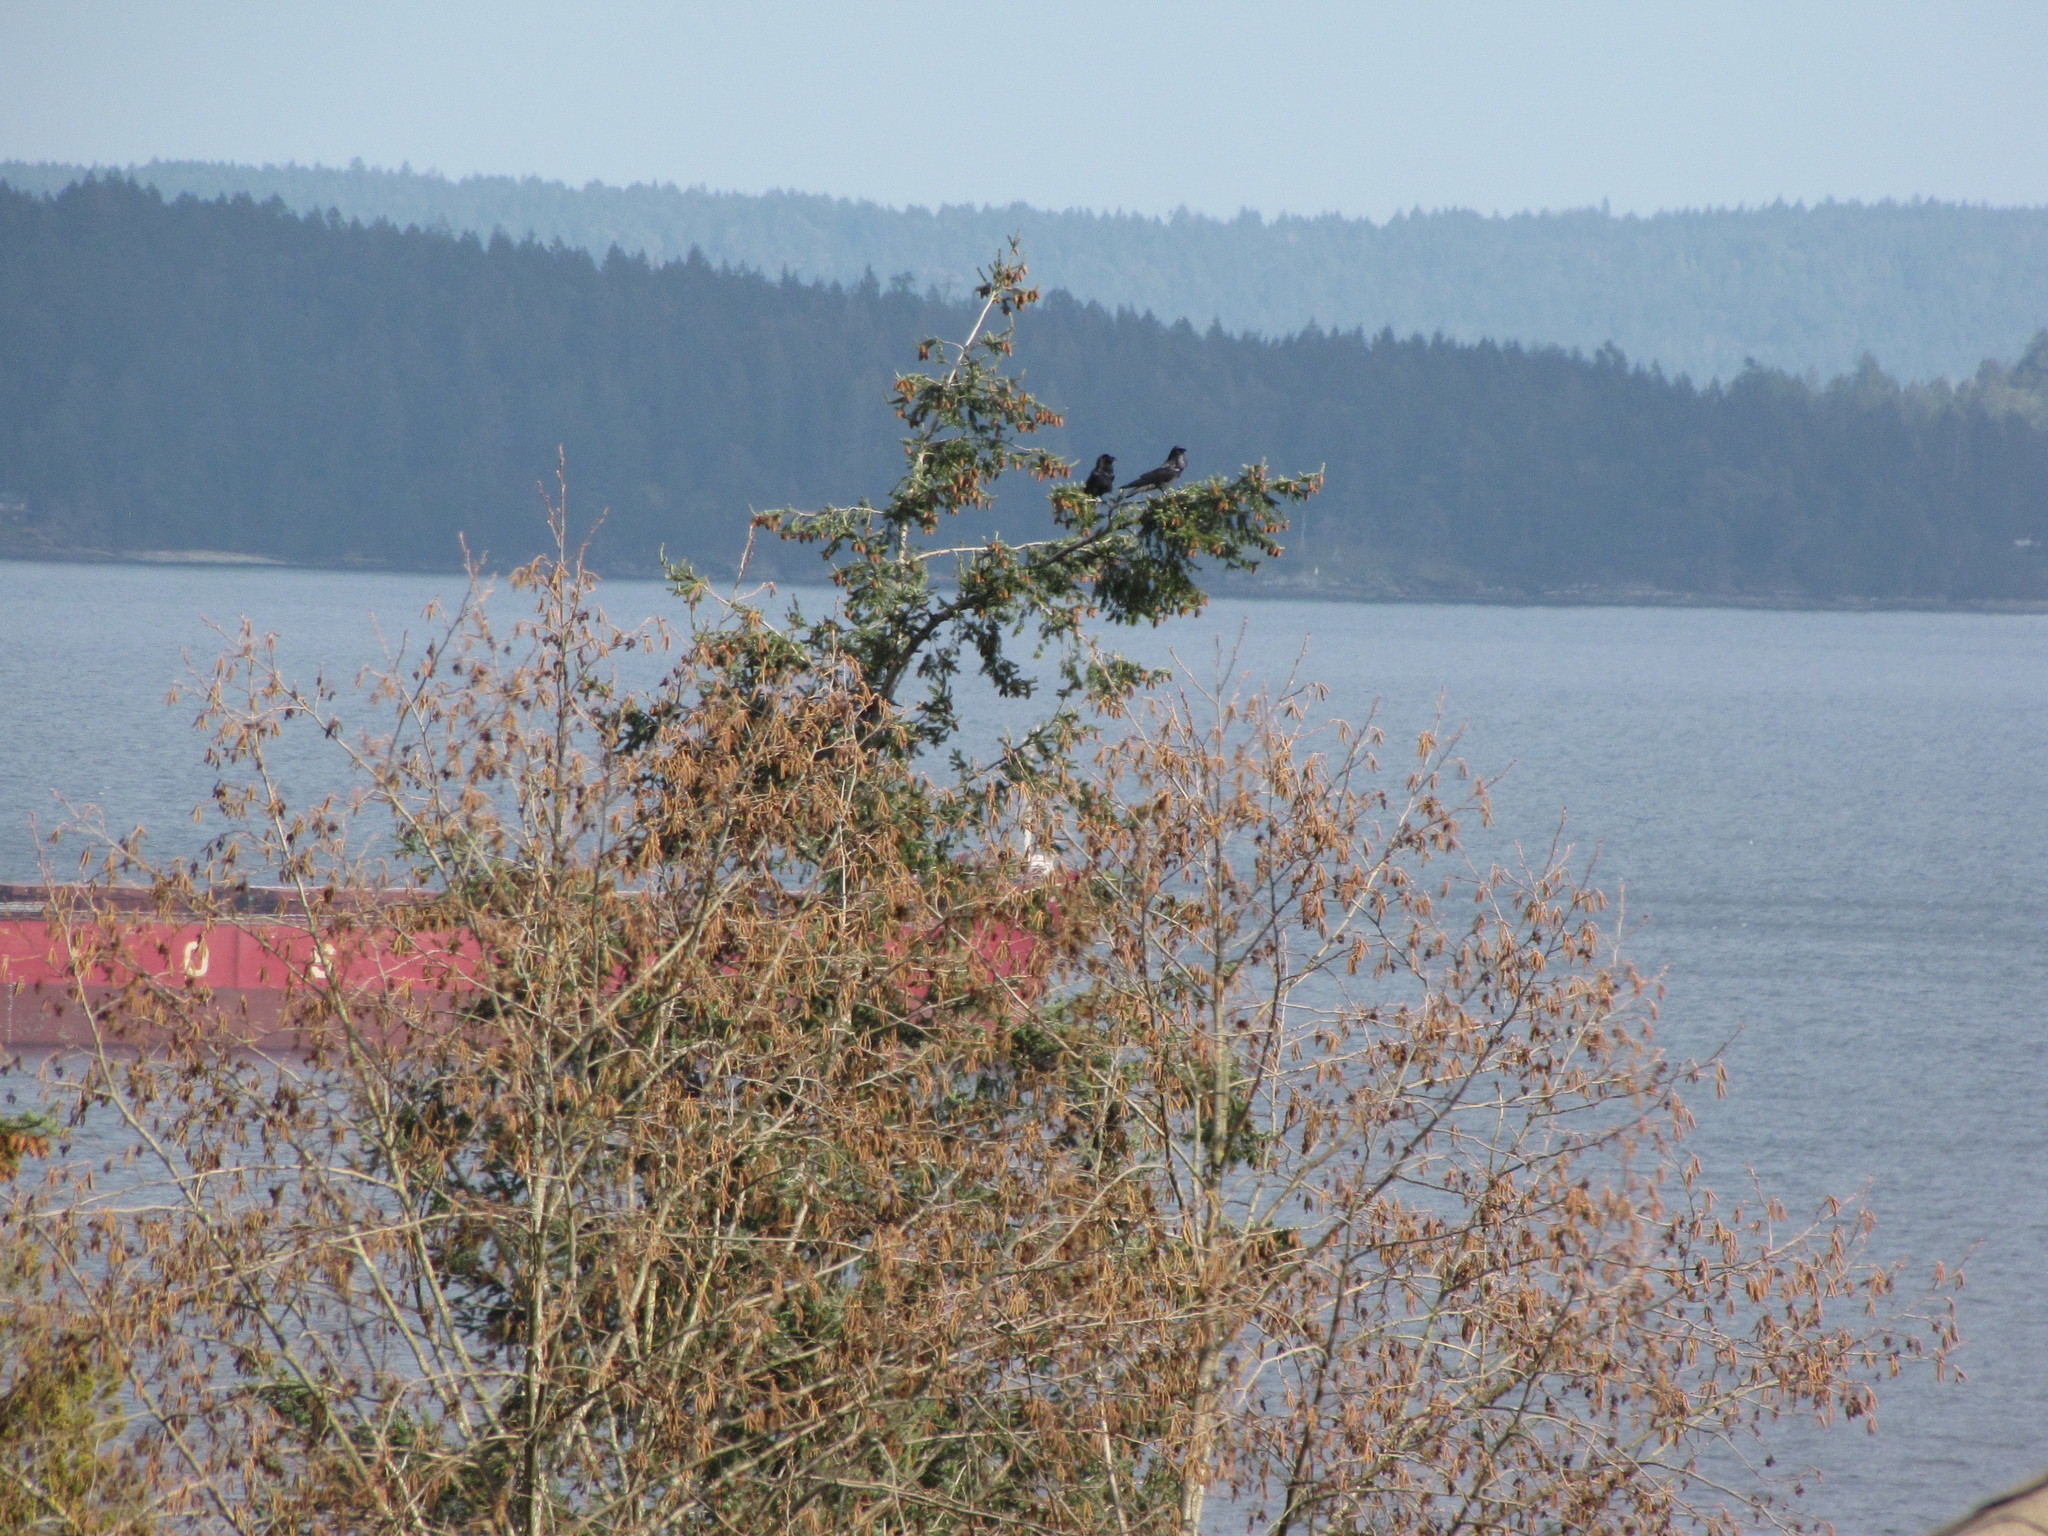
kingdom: Animalia
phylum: Chordata
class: Aves
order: Passeriformes
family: Corvidae
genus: Corvus
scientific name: Corvus corax
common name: Common raven
